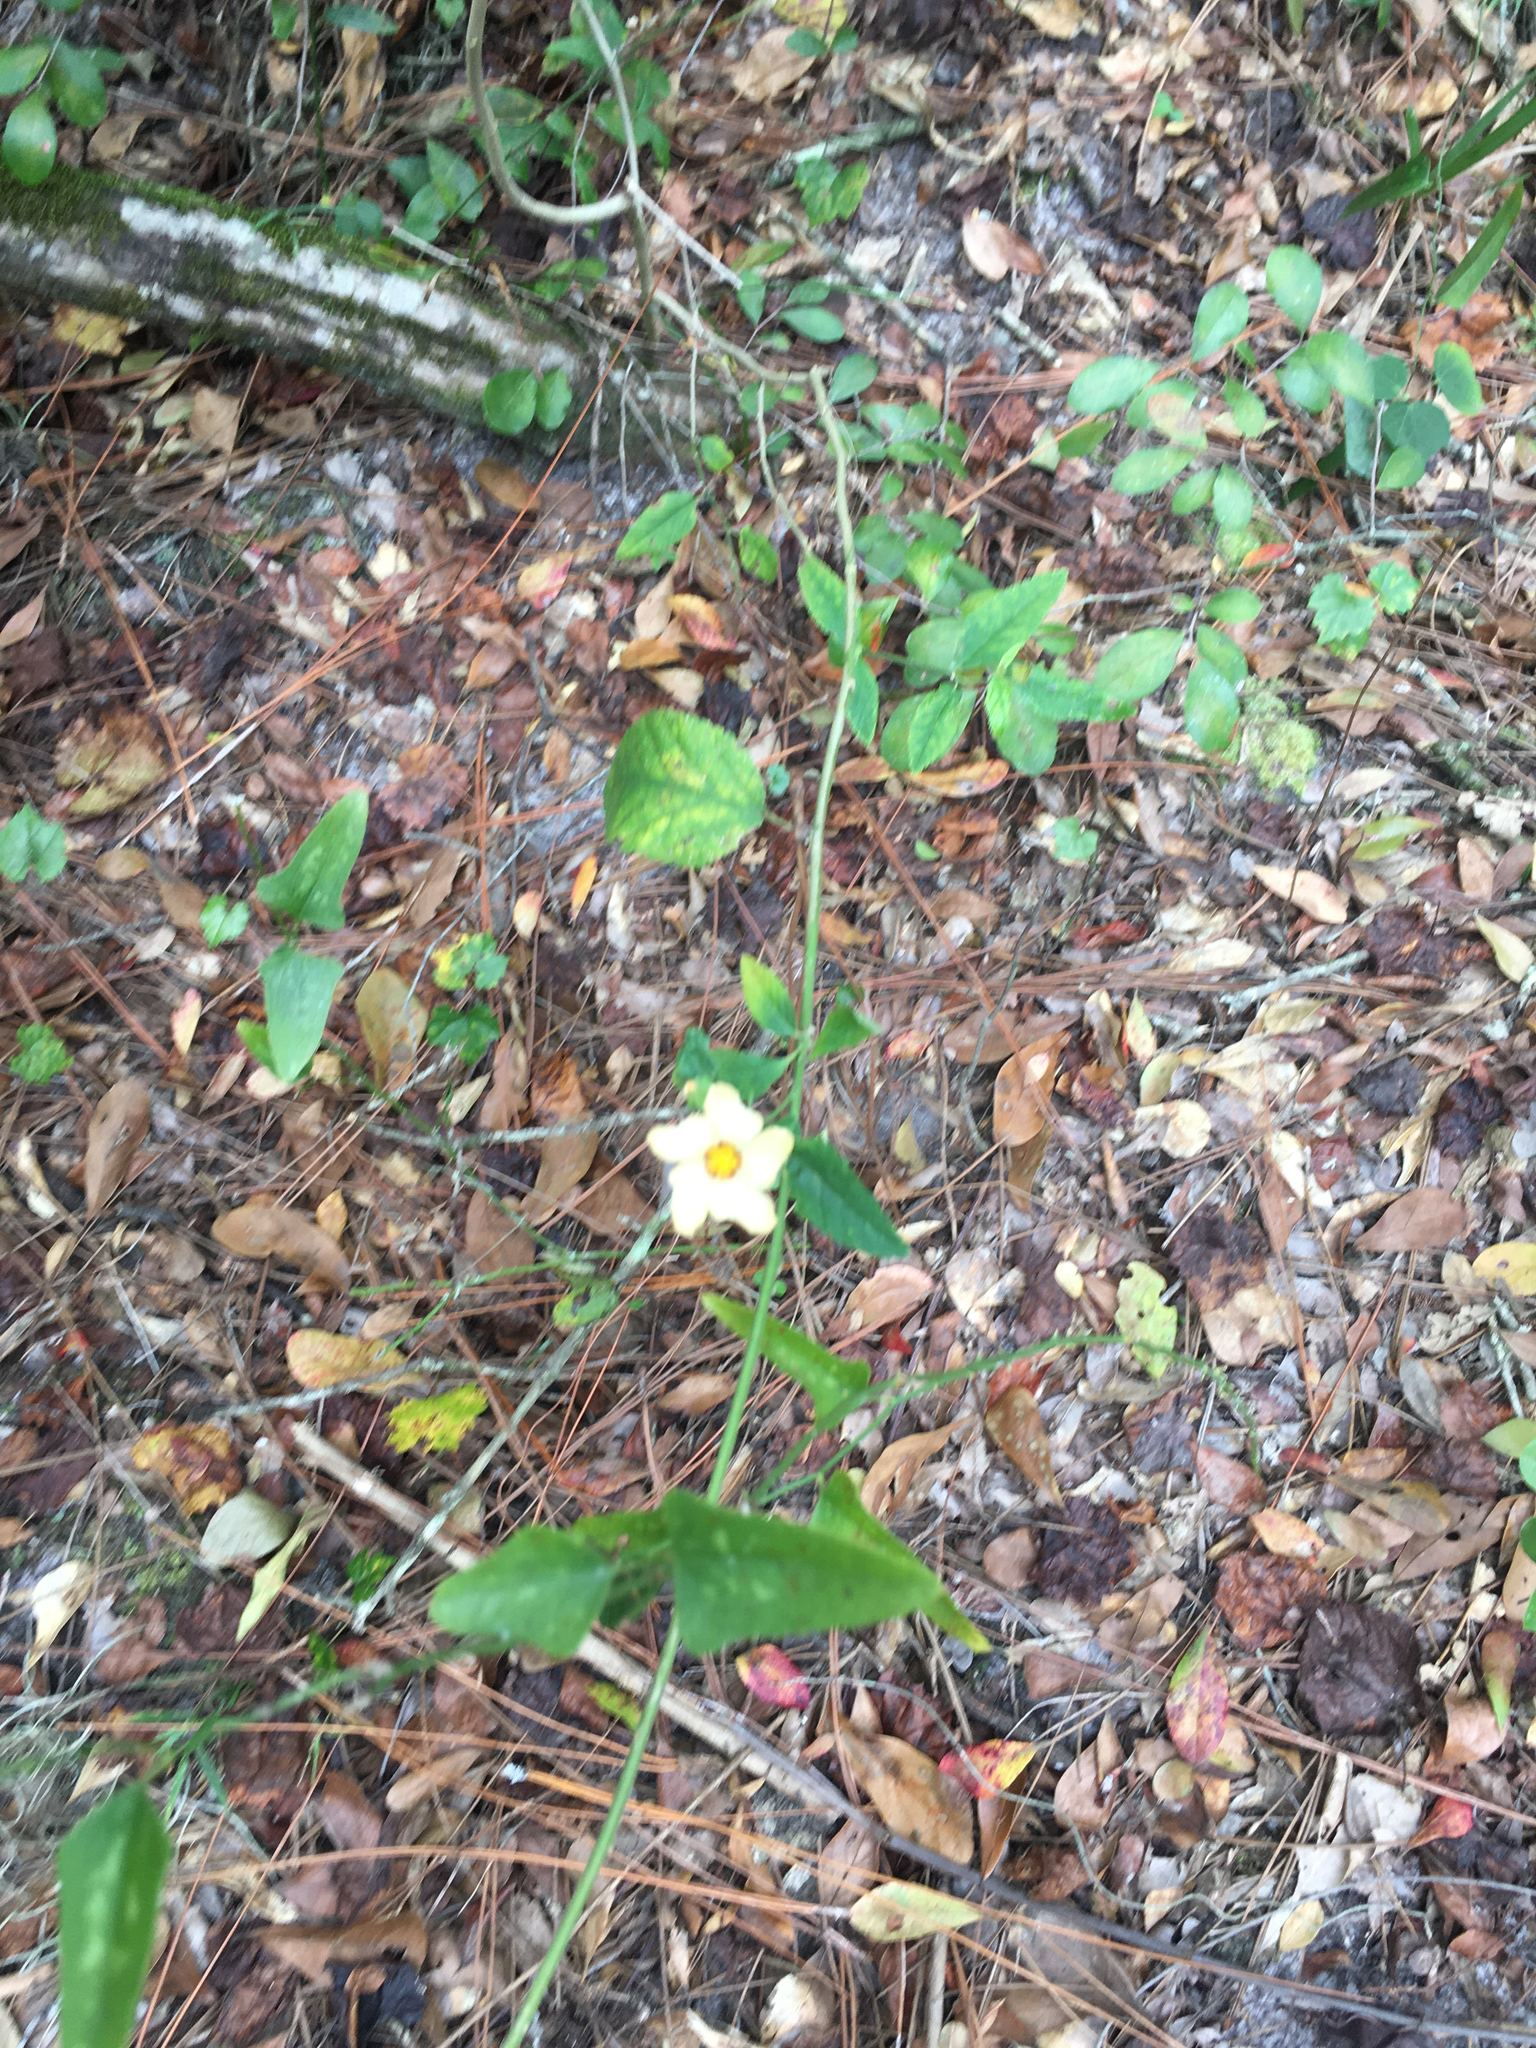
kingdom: Plantae
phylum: Tracheophyta
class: Magnoliopsida
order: Malvales
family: Malvaceae
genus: Sida
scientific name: Sida rhombifolia
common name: Queensland-hemp
